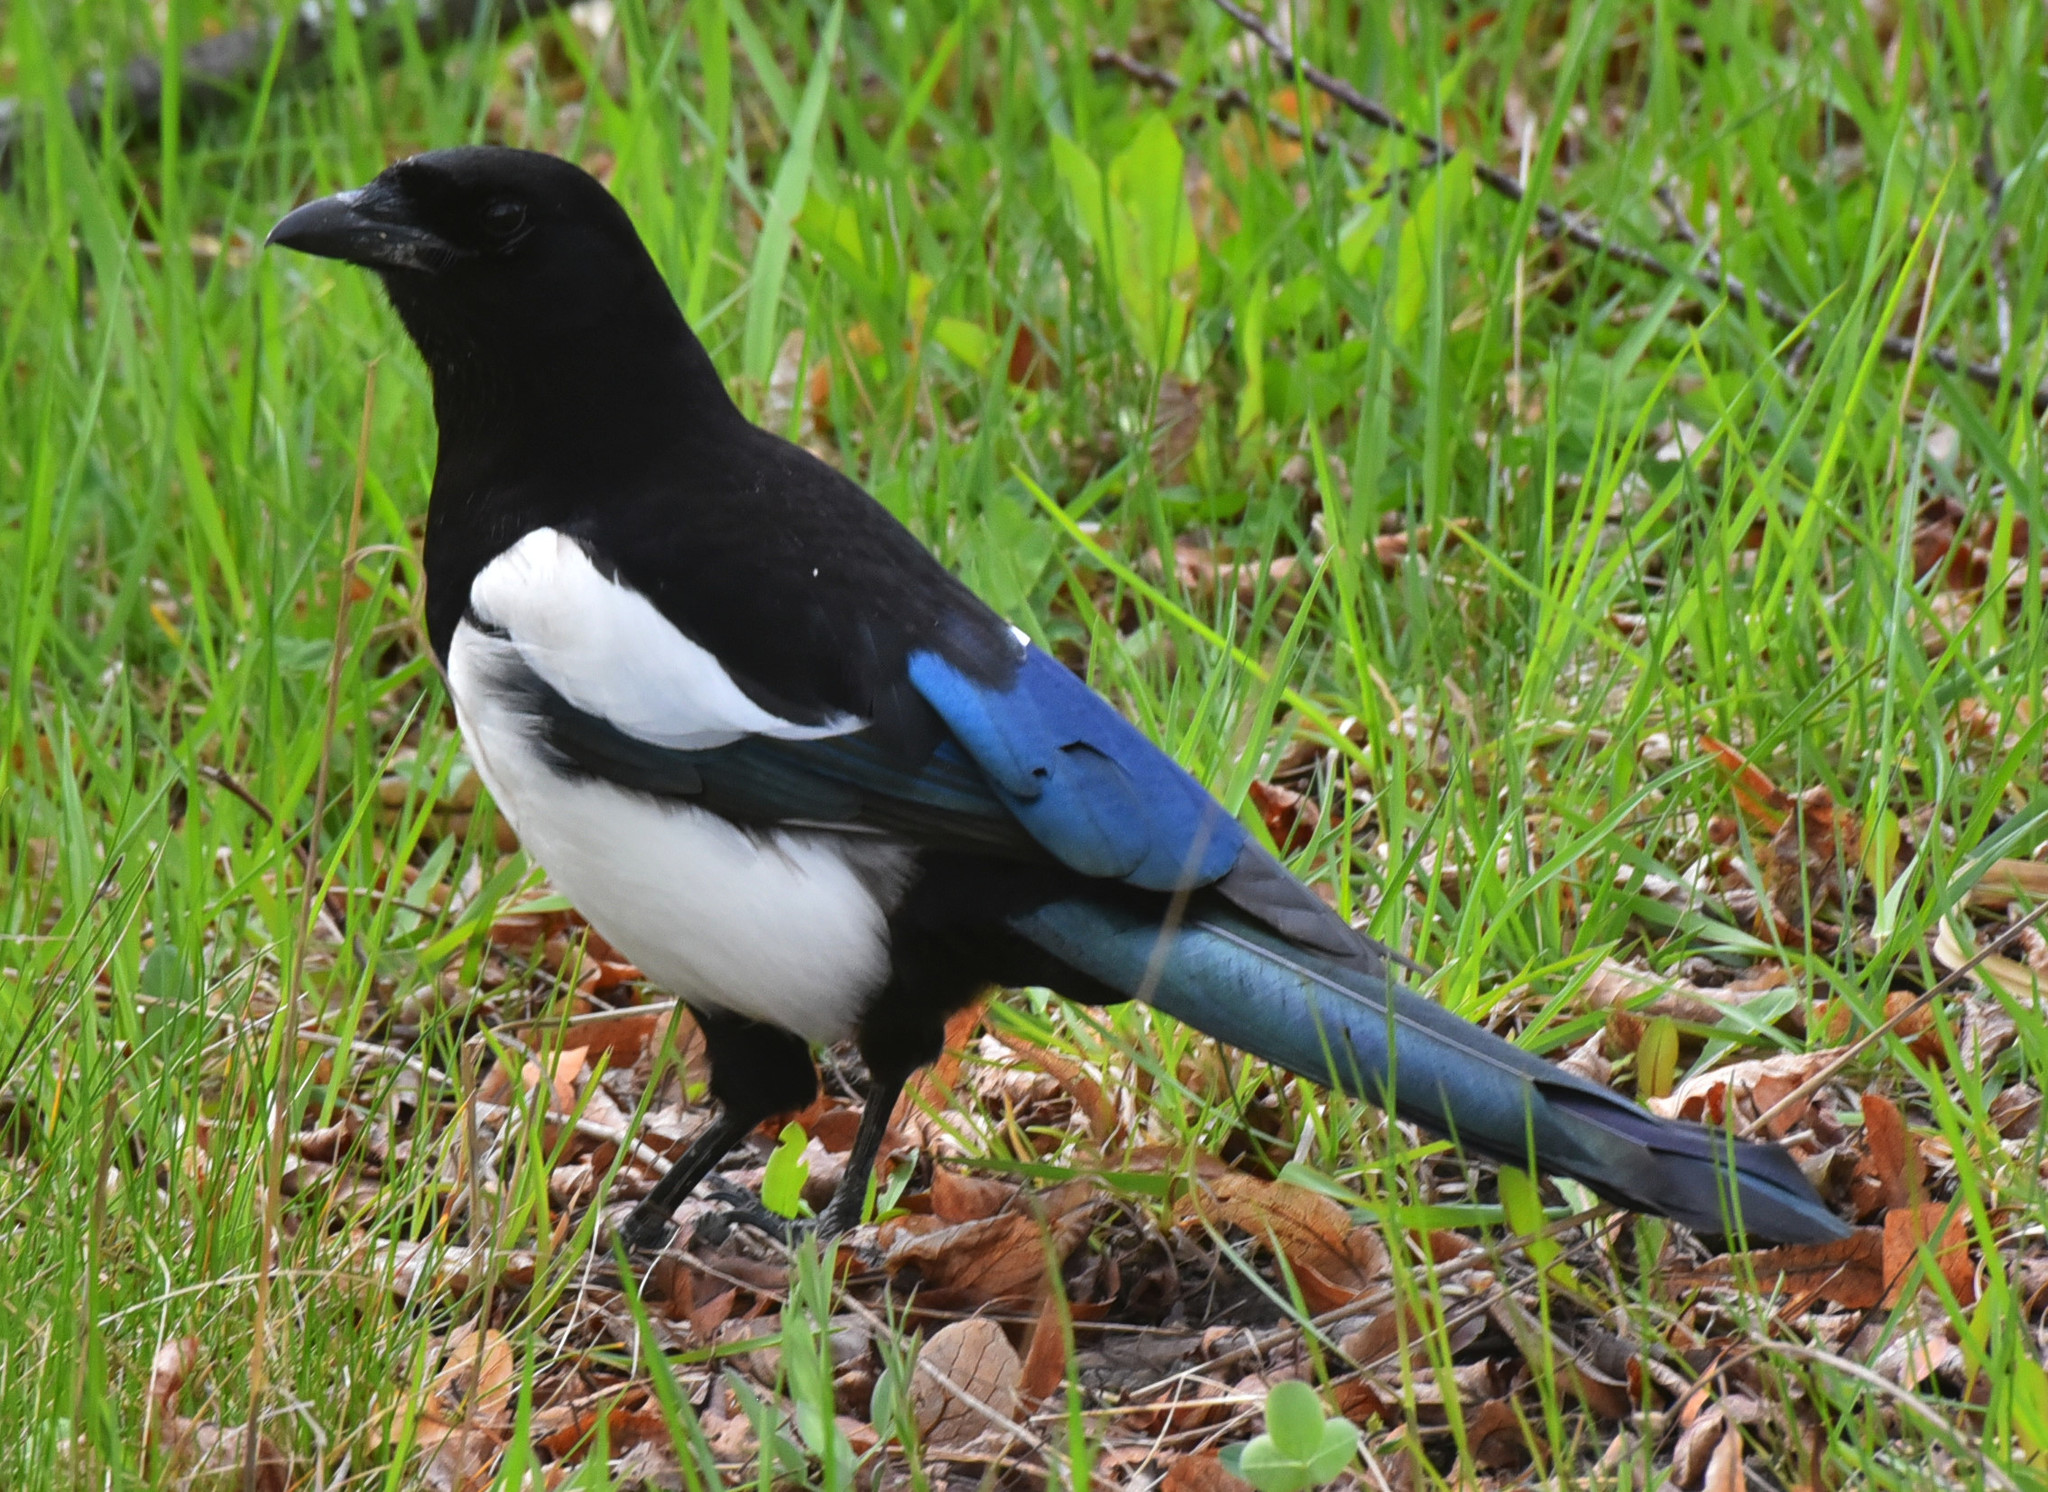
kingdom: Animalia
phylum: Chordata
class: Aves
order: Passeriformes
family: Corvidae
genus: Pica
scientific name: Pica pica
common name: Eurasian magpie
